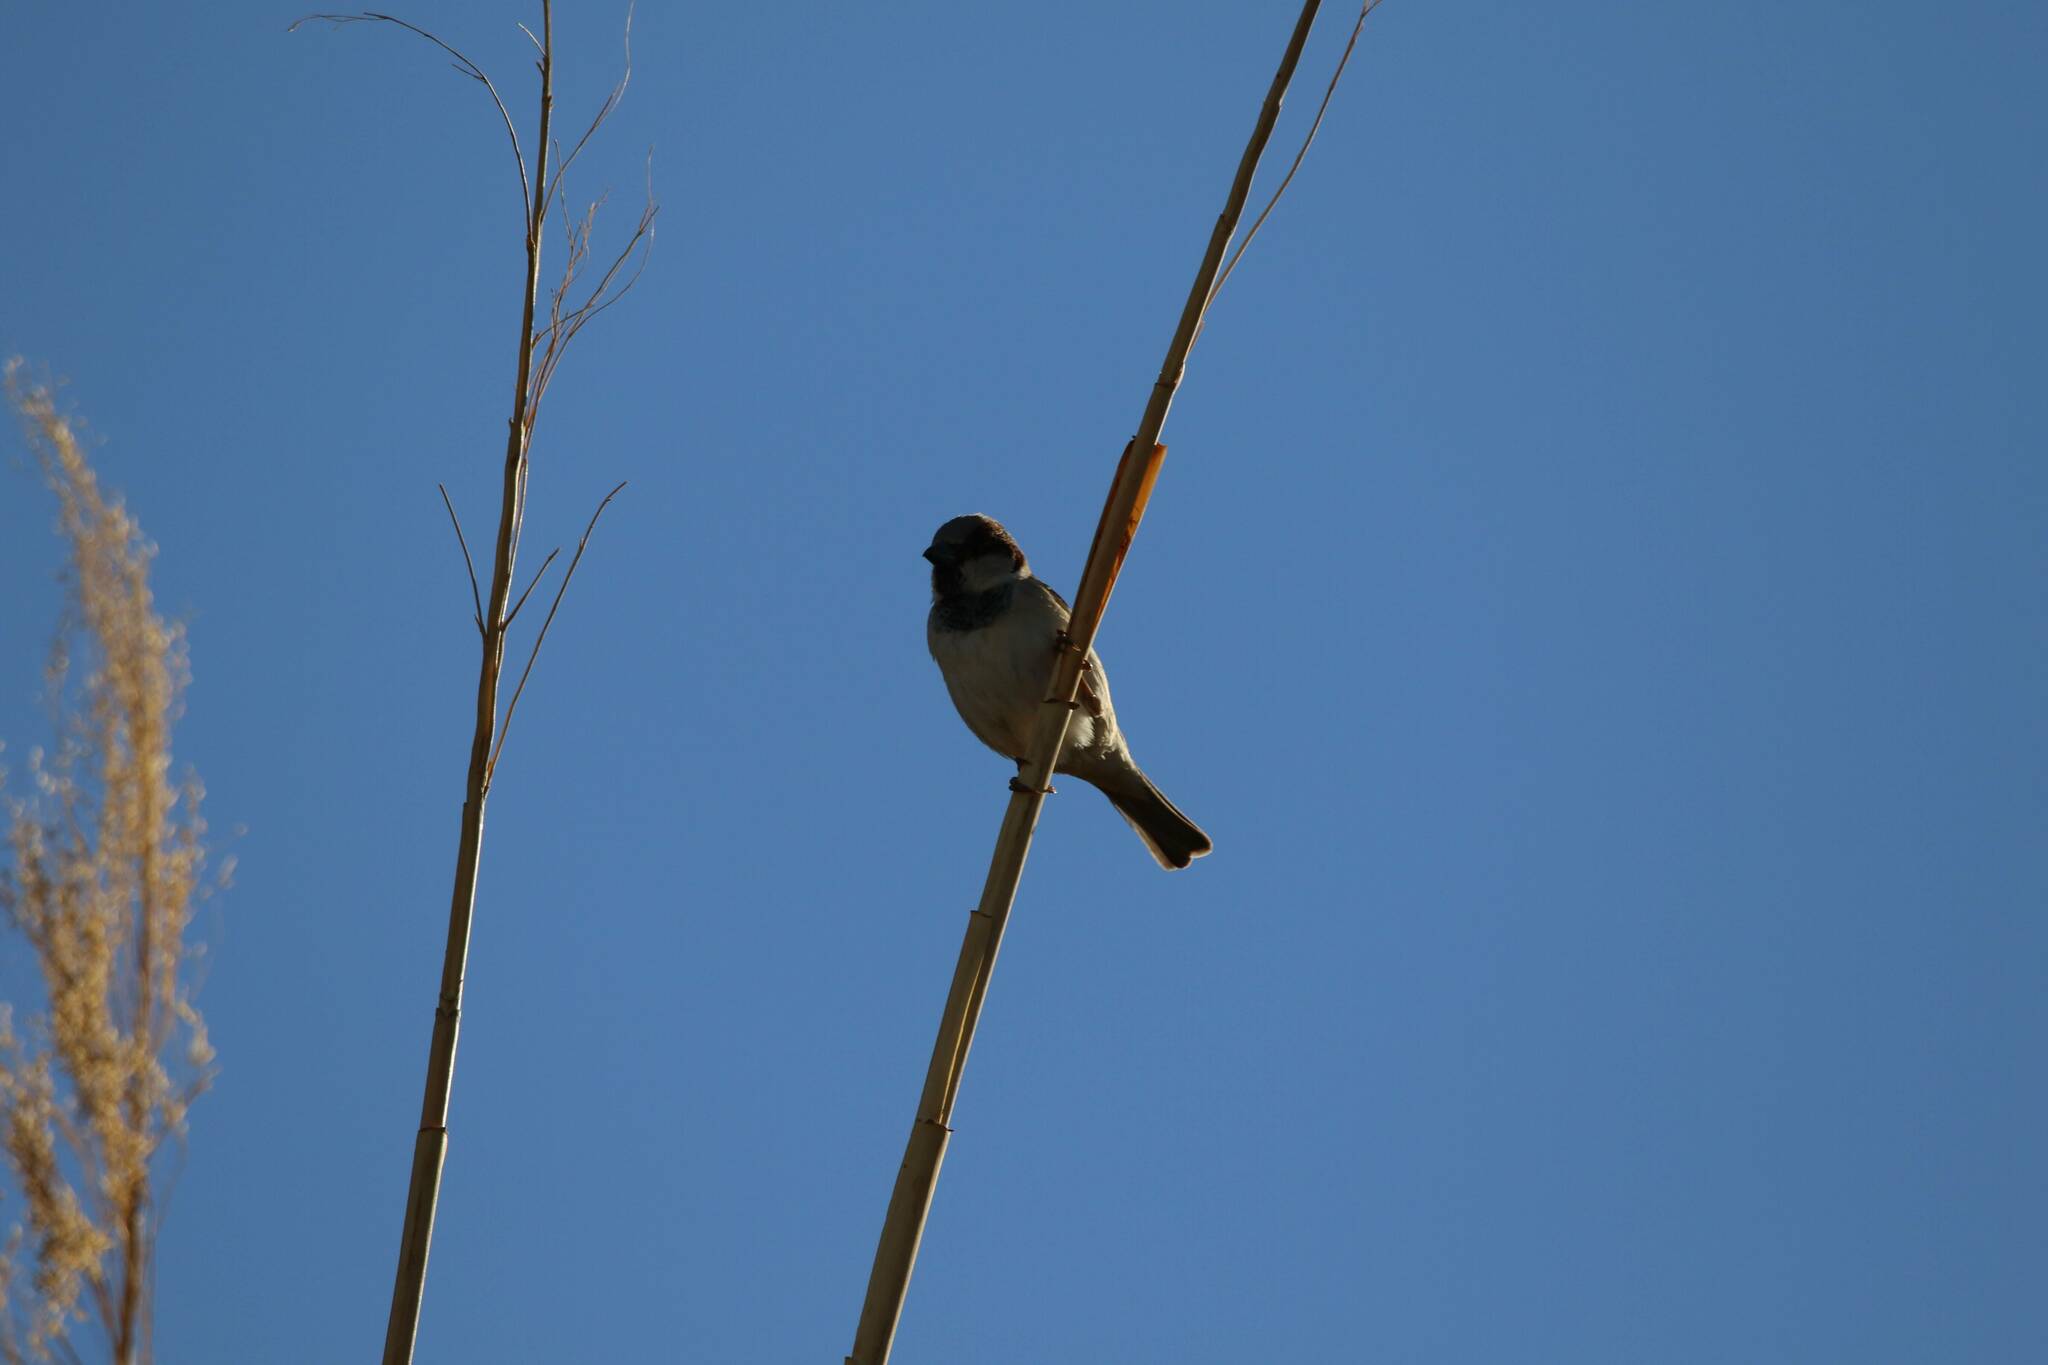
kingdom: Animalia
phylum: Chordata
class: Aves
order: Passeriformes
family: Passeridae
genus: Passer
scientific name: Passer domesticus
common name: House sparrow
